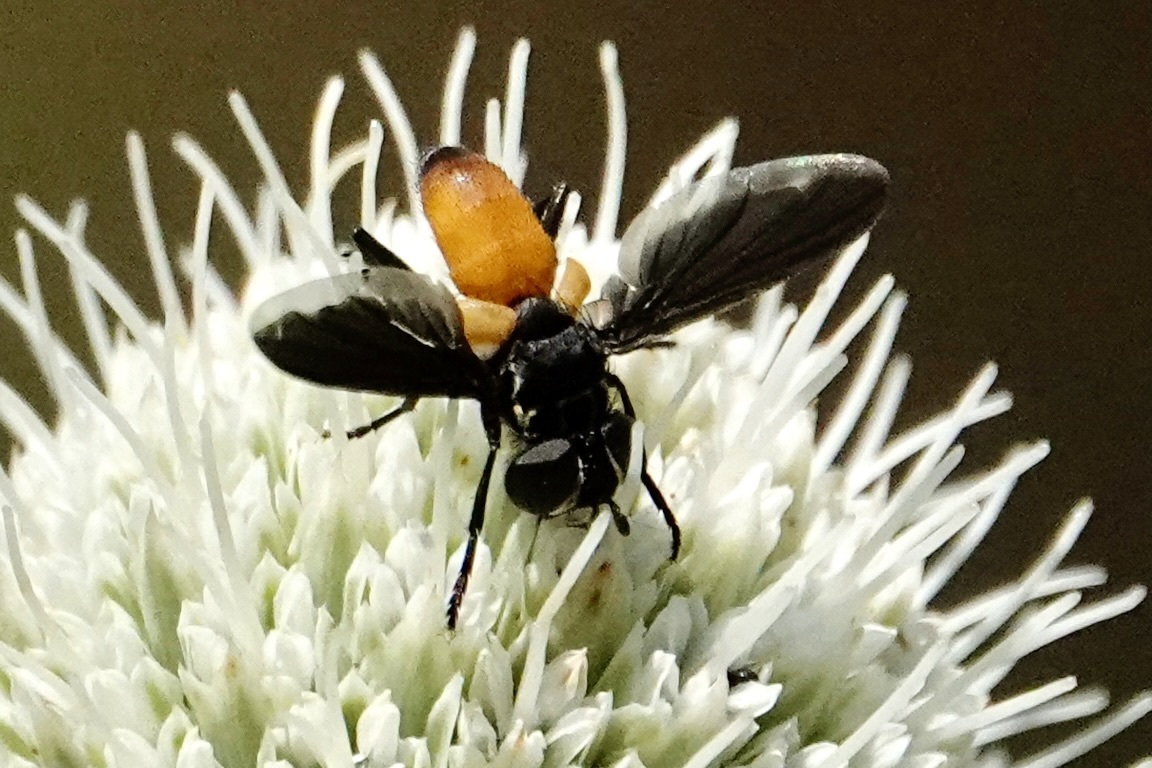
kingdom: Animalia
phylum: Arthropoda
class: Insecta
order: Diptera
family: Tachinidae
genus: Trichopoda
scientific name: Trichopoda pennipes
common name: Tachinid fly
